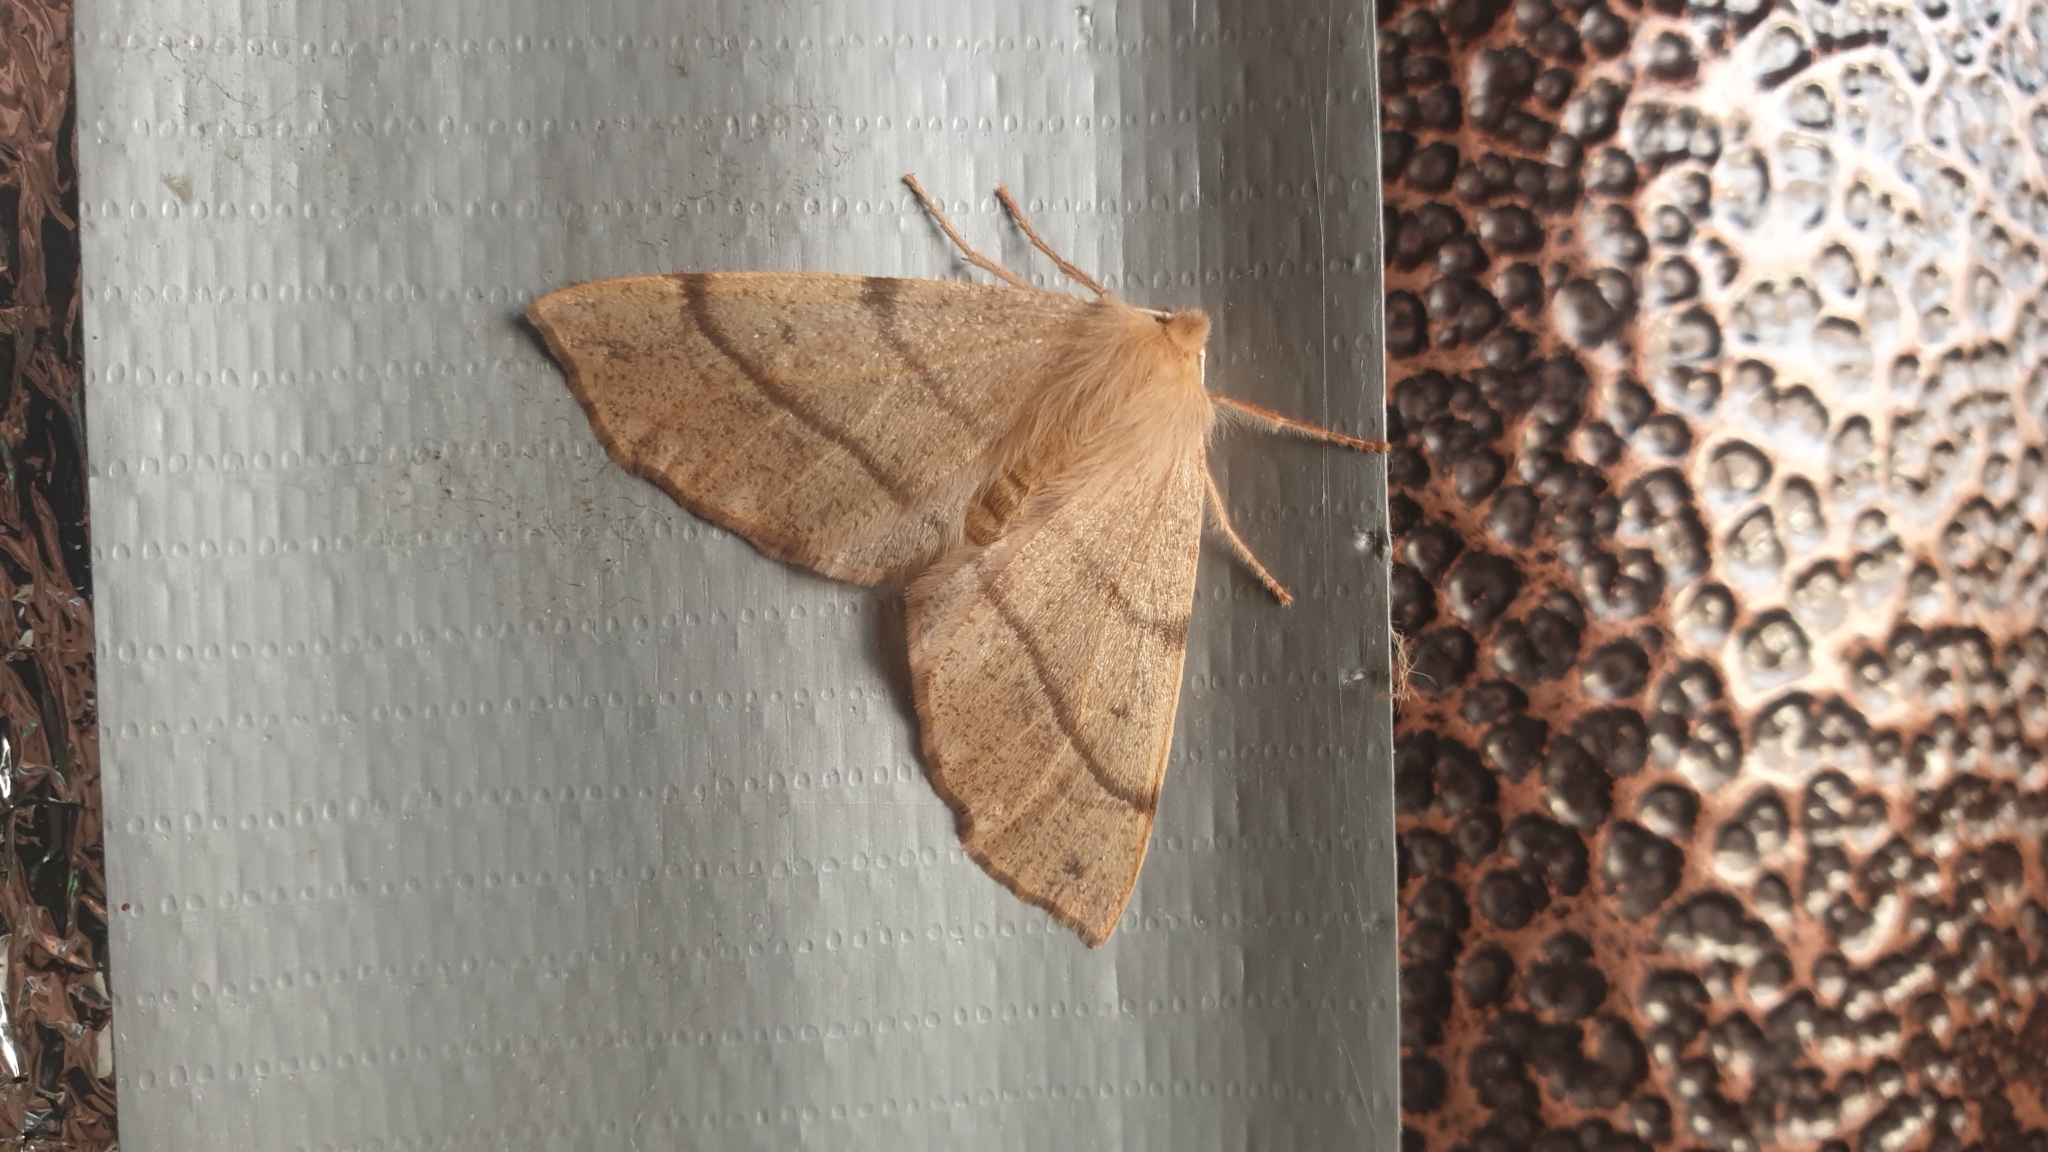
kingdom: Animalia
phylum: Arthropoda
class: Insecta
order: Lepidoptera
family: Geometridae
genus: Colotois
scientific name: Colotois pennaria
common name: Feathered thorn
